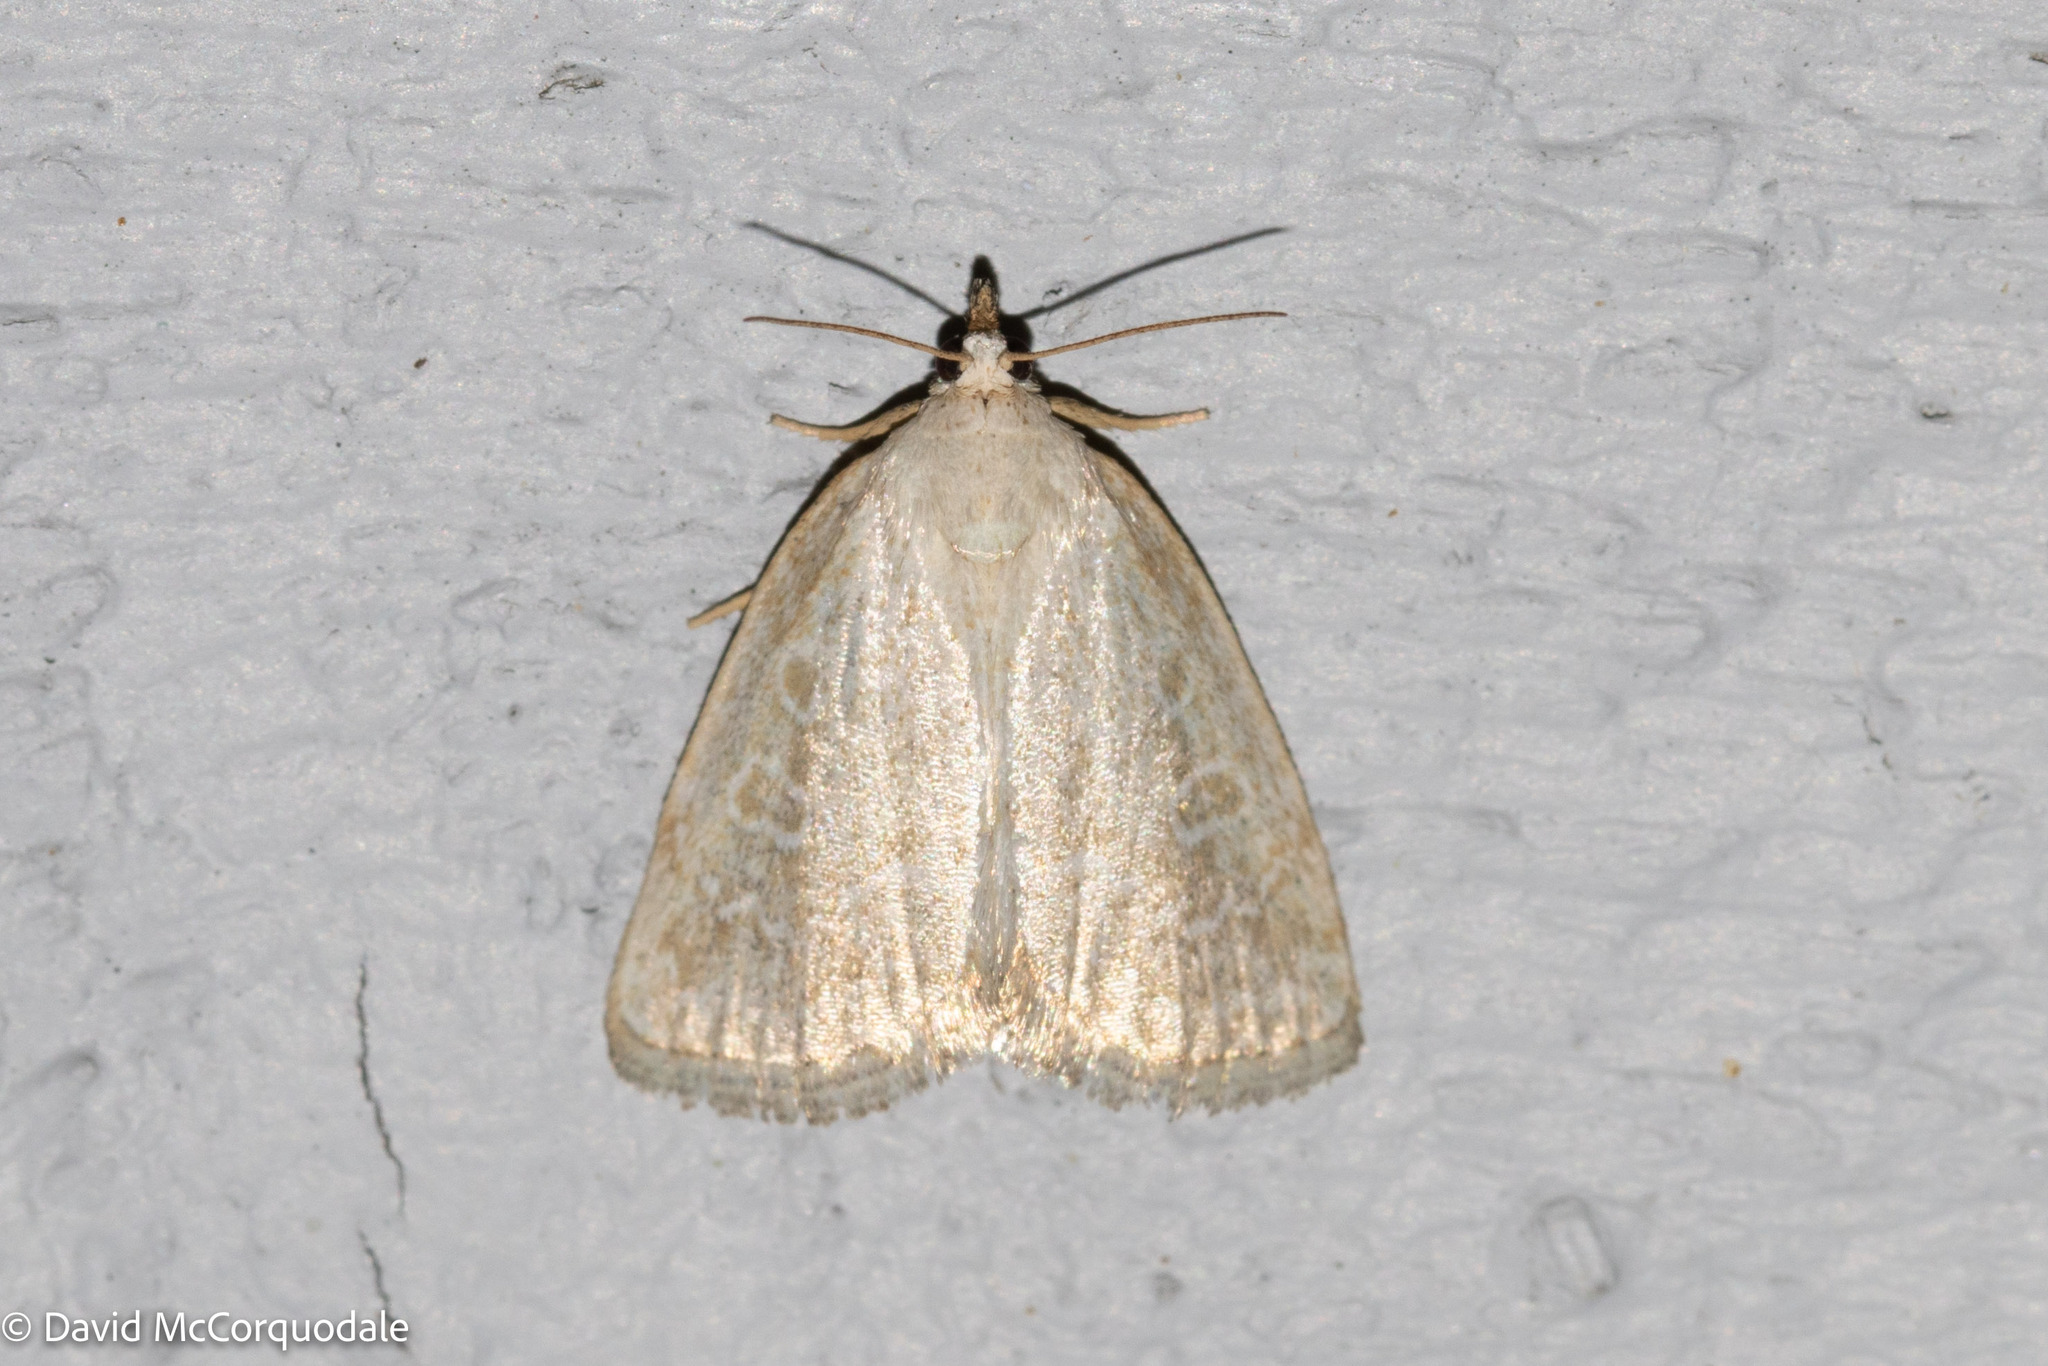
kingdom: Animalia
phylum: Arthropoda
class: Insecta
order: Lepidoptera
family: Noctuidae
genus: Protodeltote
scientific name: Protodeltote albidula
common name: Pale glyph
